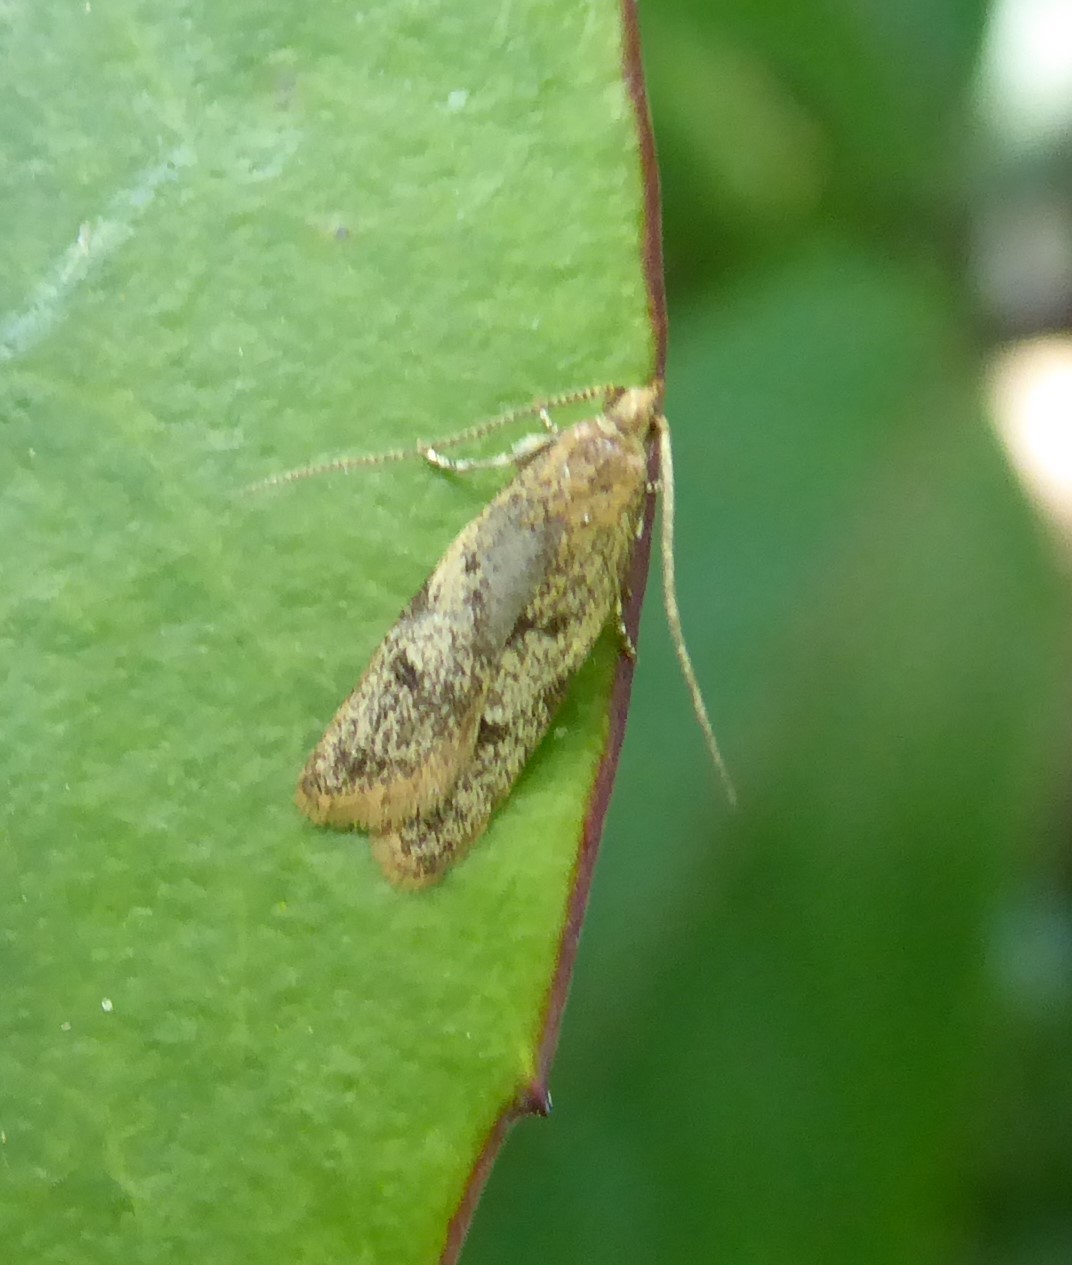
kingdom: Animalia
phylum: Arthropoda
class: Insecta
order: Lepidoptera
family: Oecophoridae
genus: Gymnobathra
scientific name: Gymnobathra tholodella
